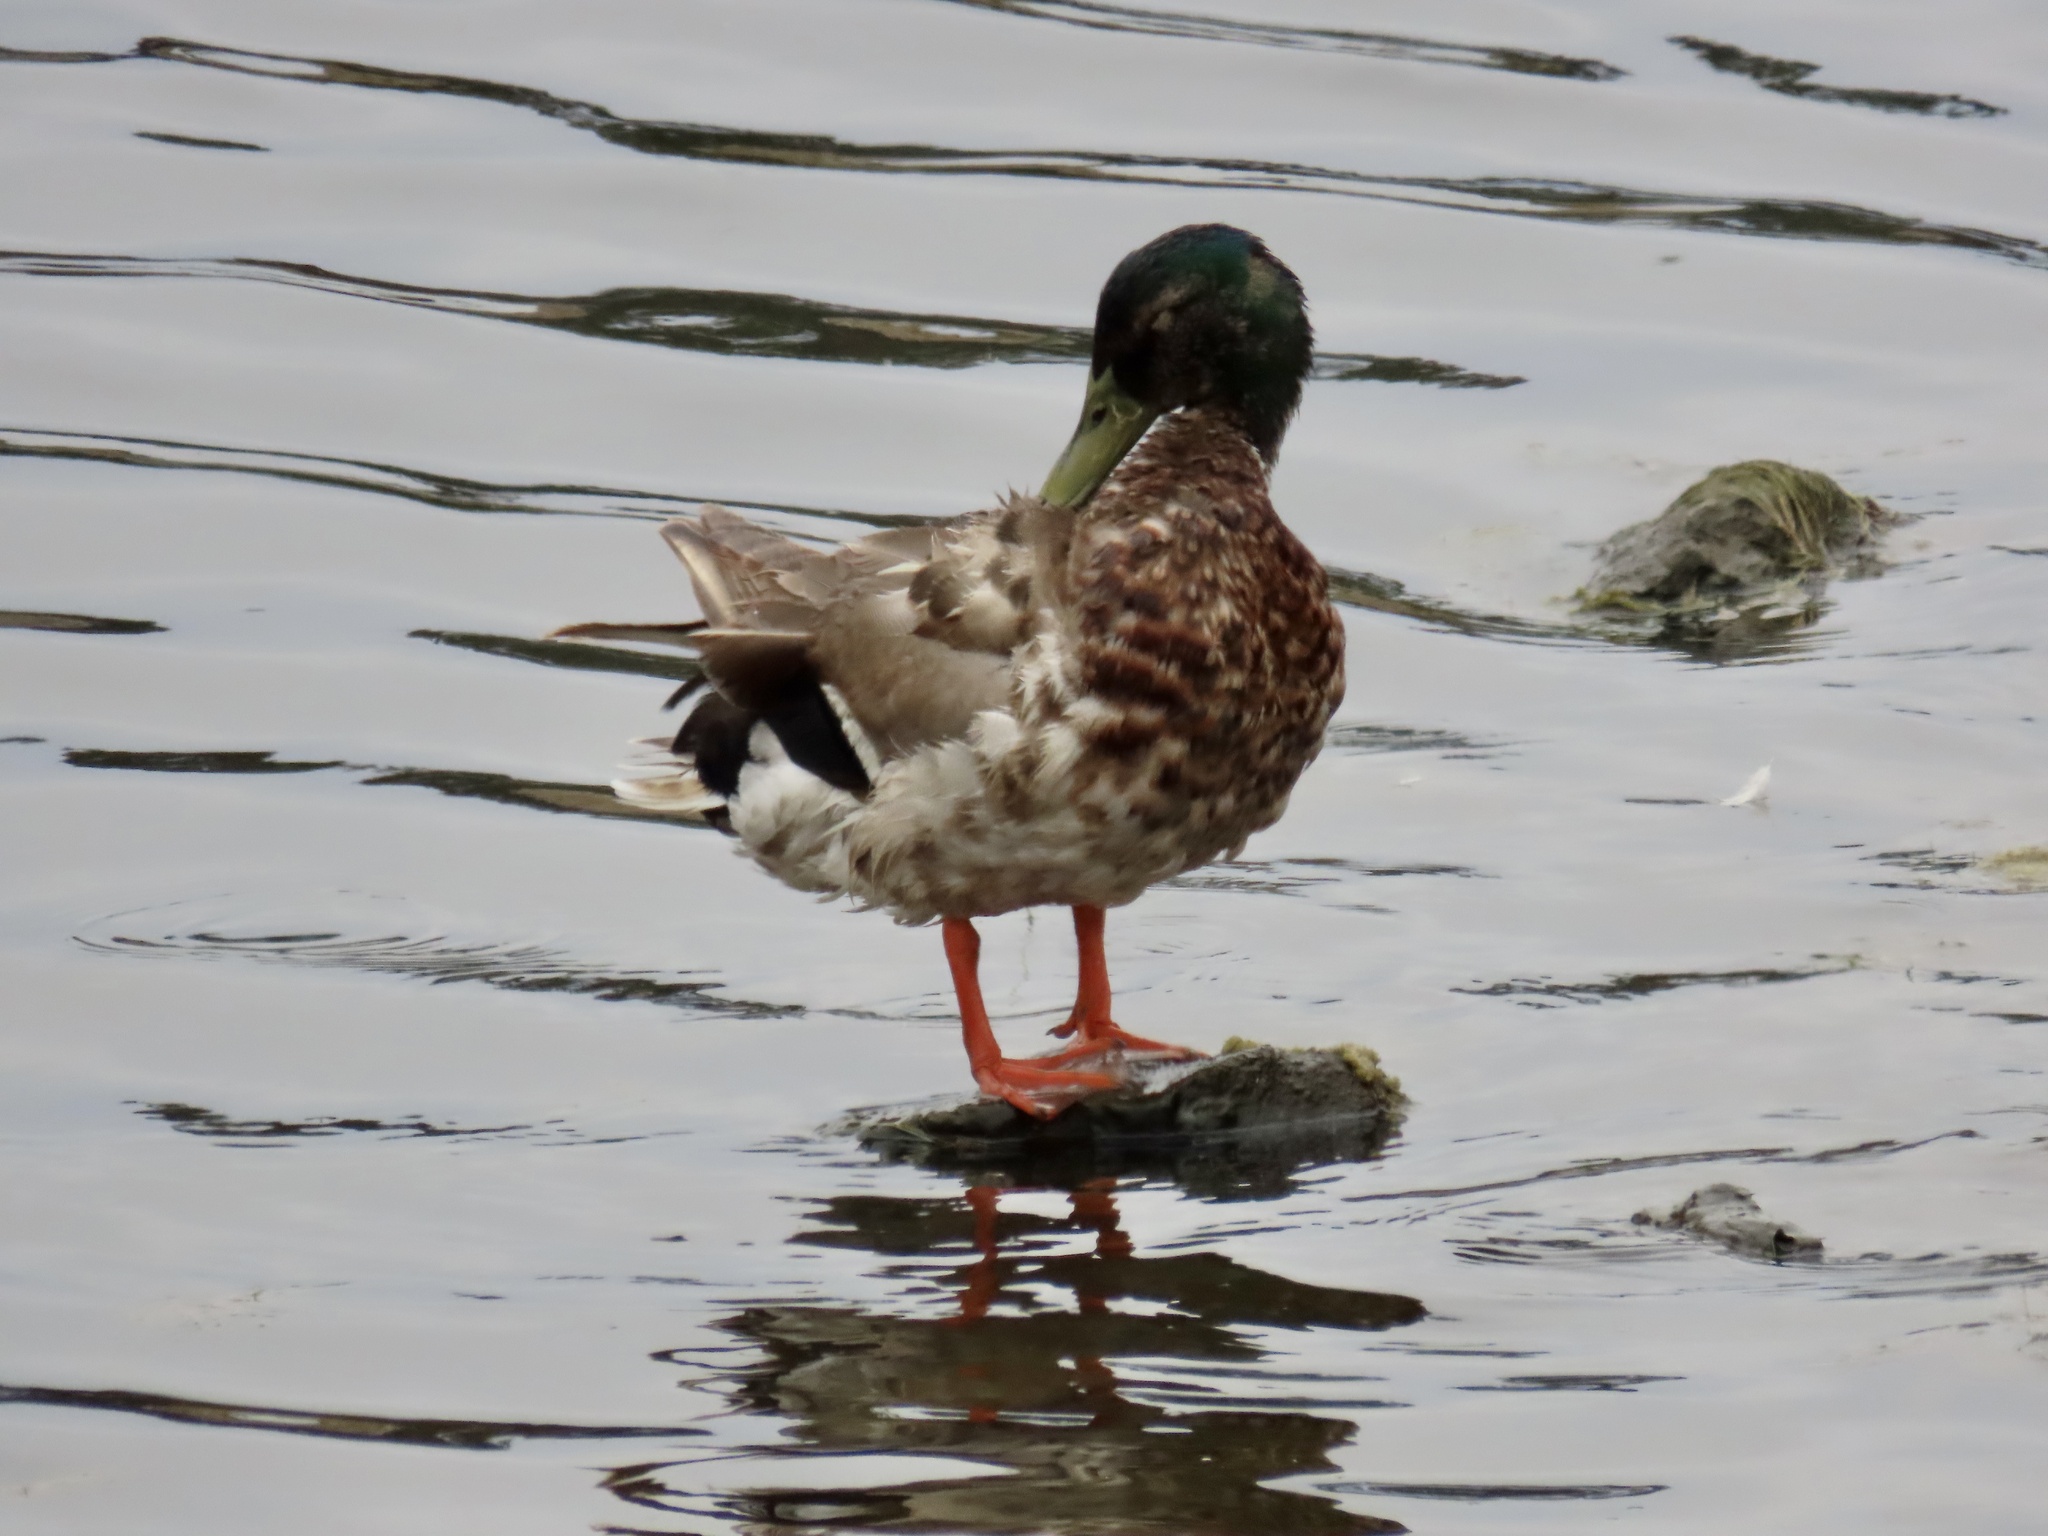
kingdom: Animalia
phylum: Chordata
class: Aves
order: Anseriformes
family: Anatidae
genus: Anas
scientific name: Anas platyrhynchos
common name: Mallard
